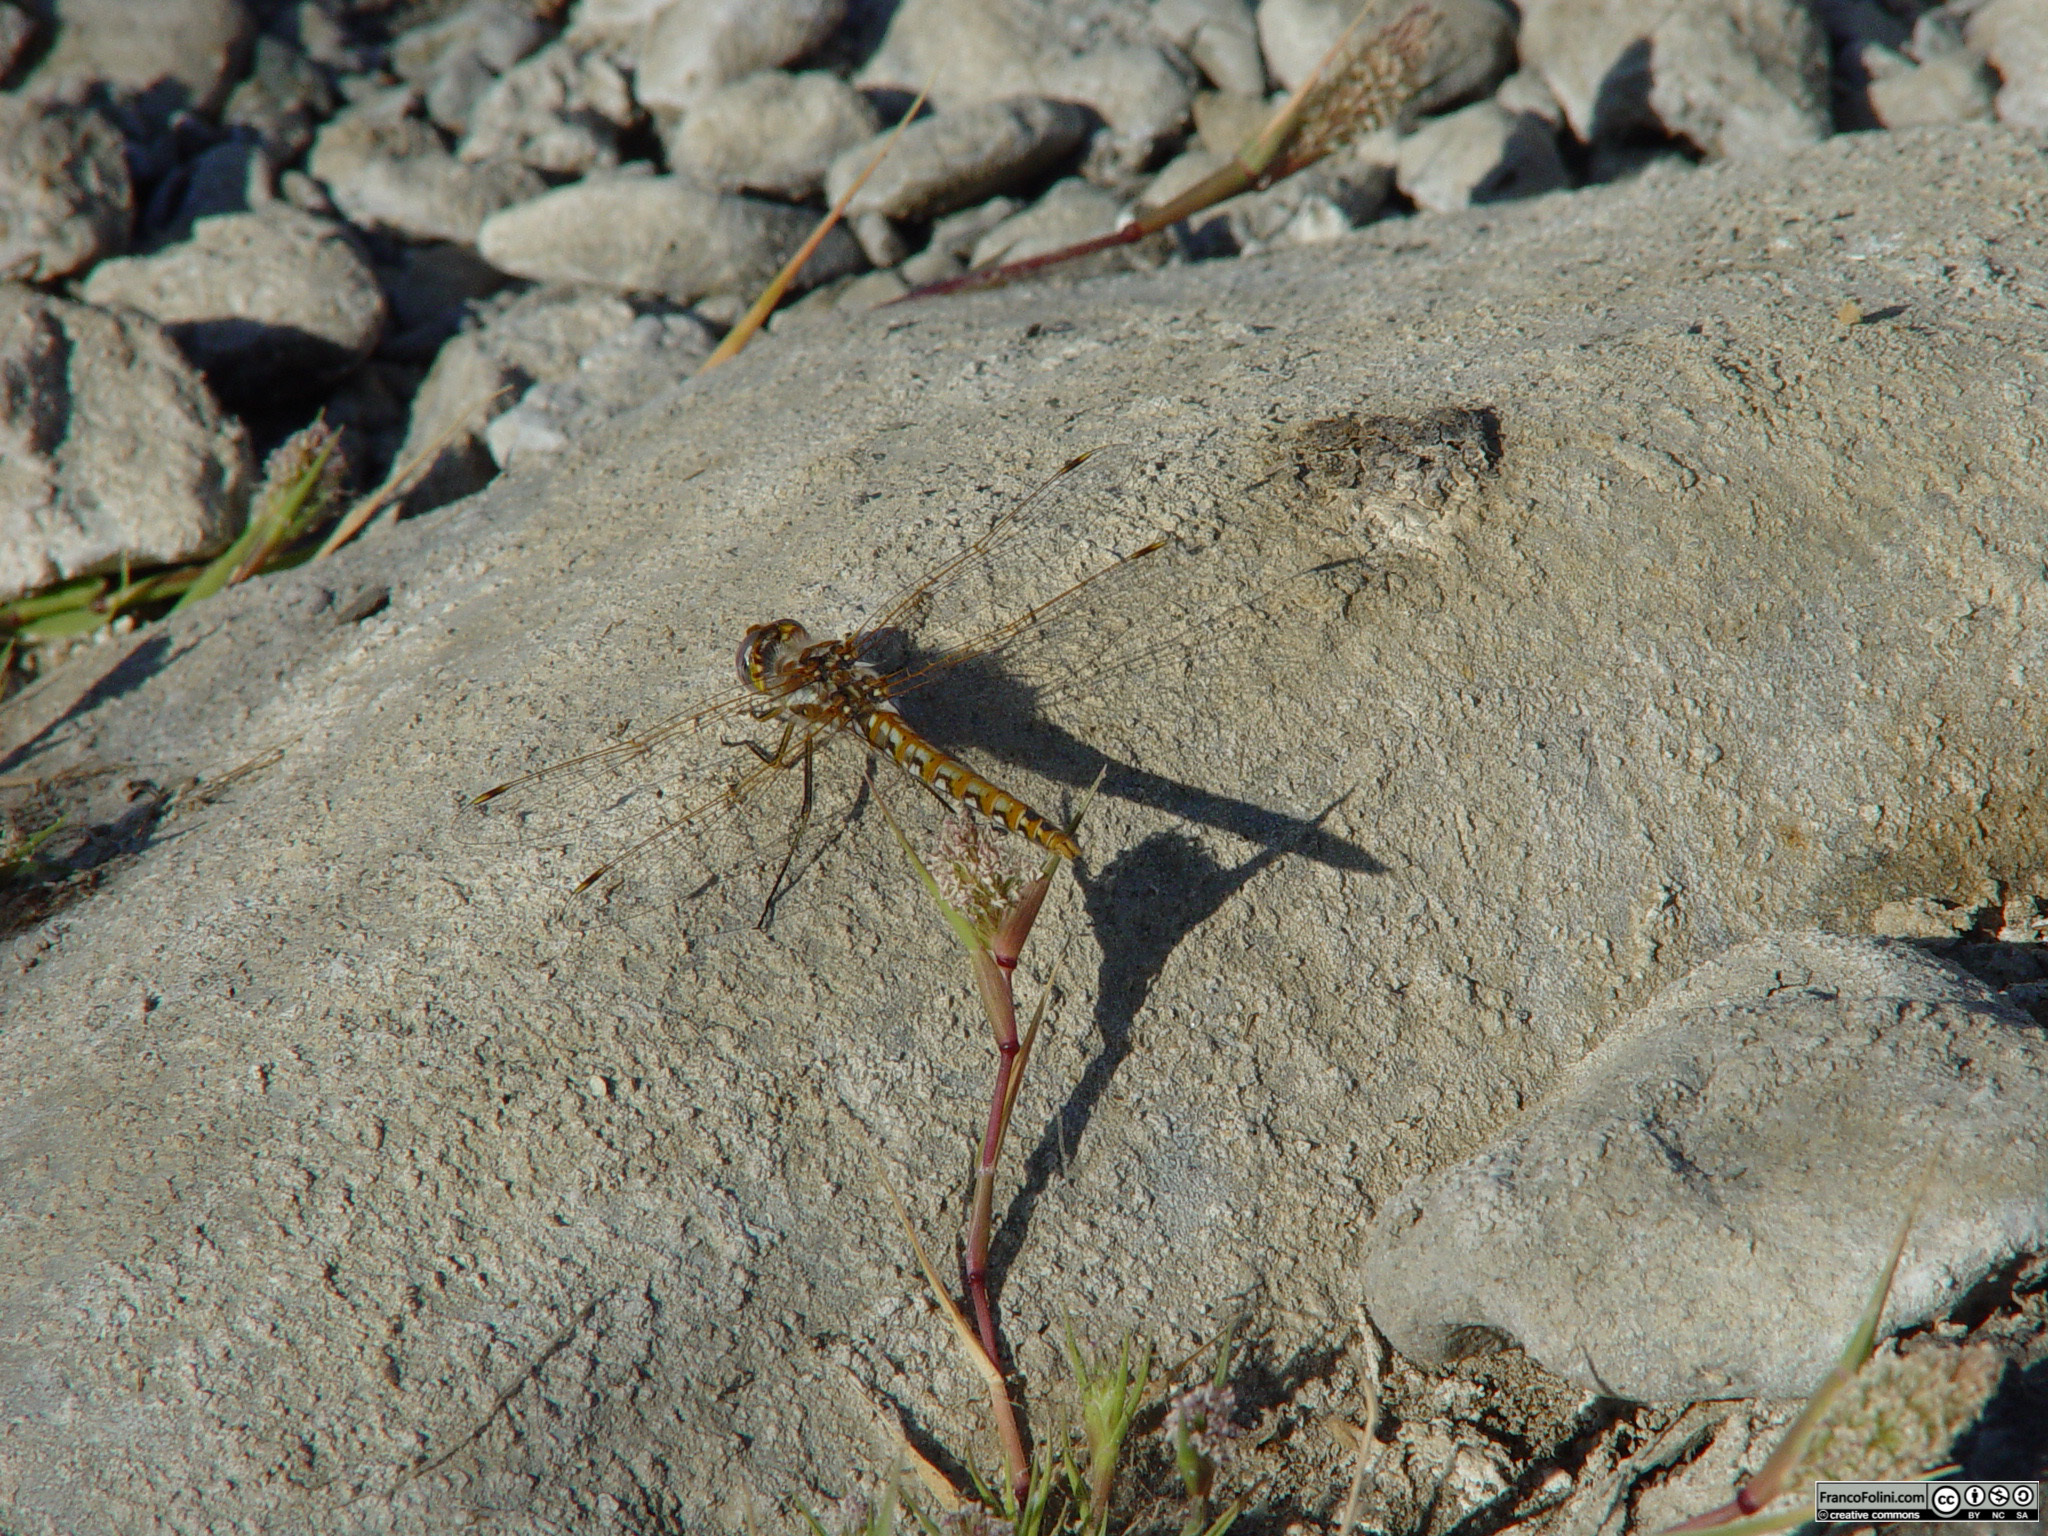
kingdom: Animalia
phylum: Arthropoda
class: Insecta
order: Odonata
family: Libellulidae
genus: Sympetrum
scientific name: Sympetrum corruptum
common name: Variegated meadowhawk
